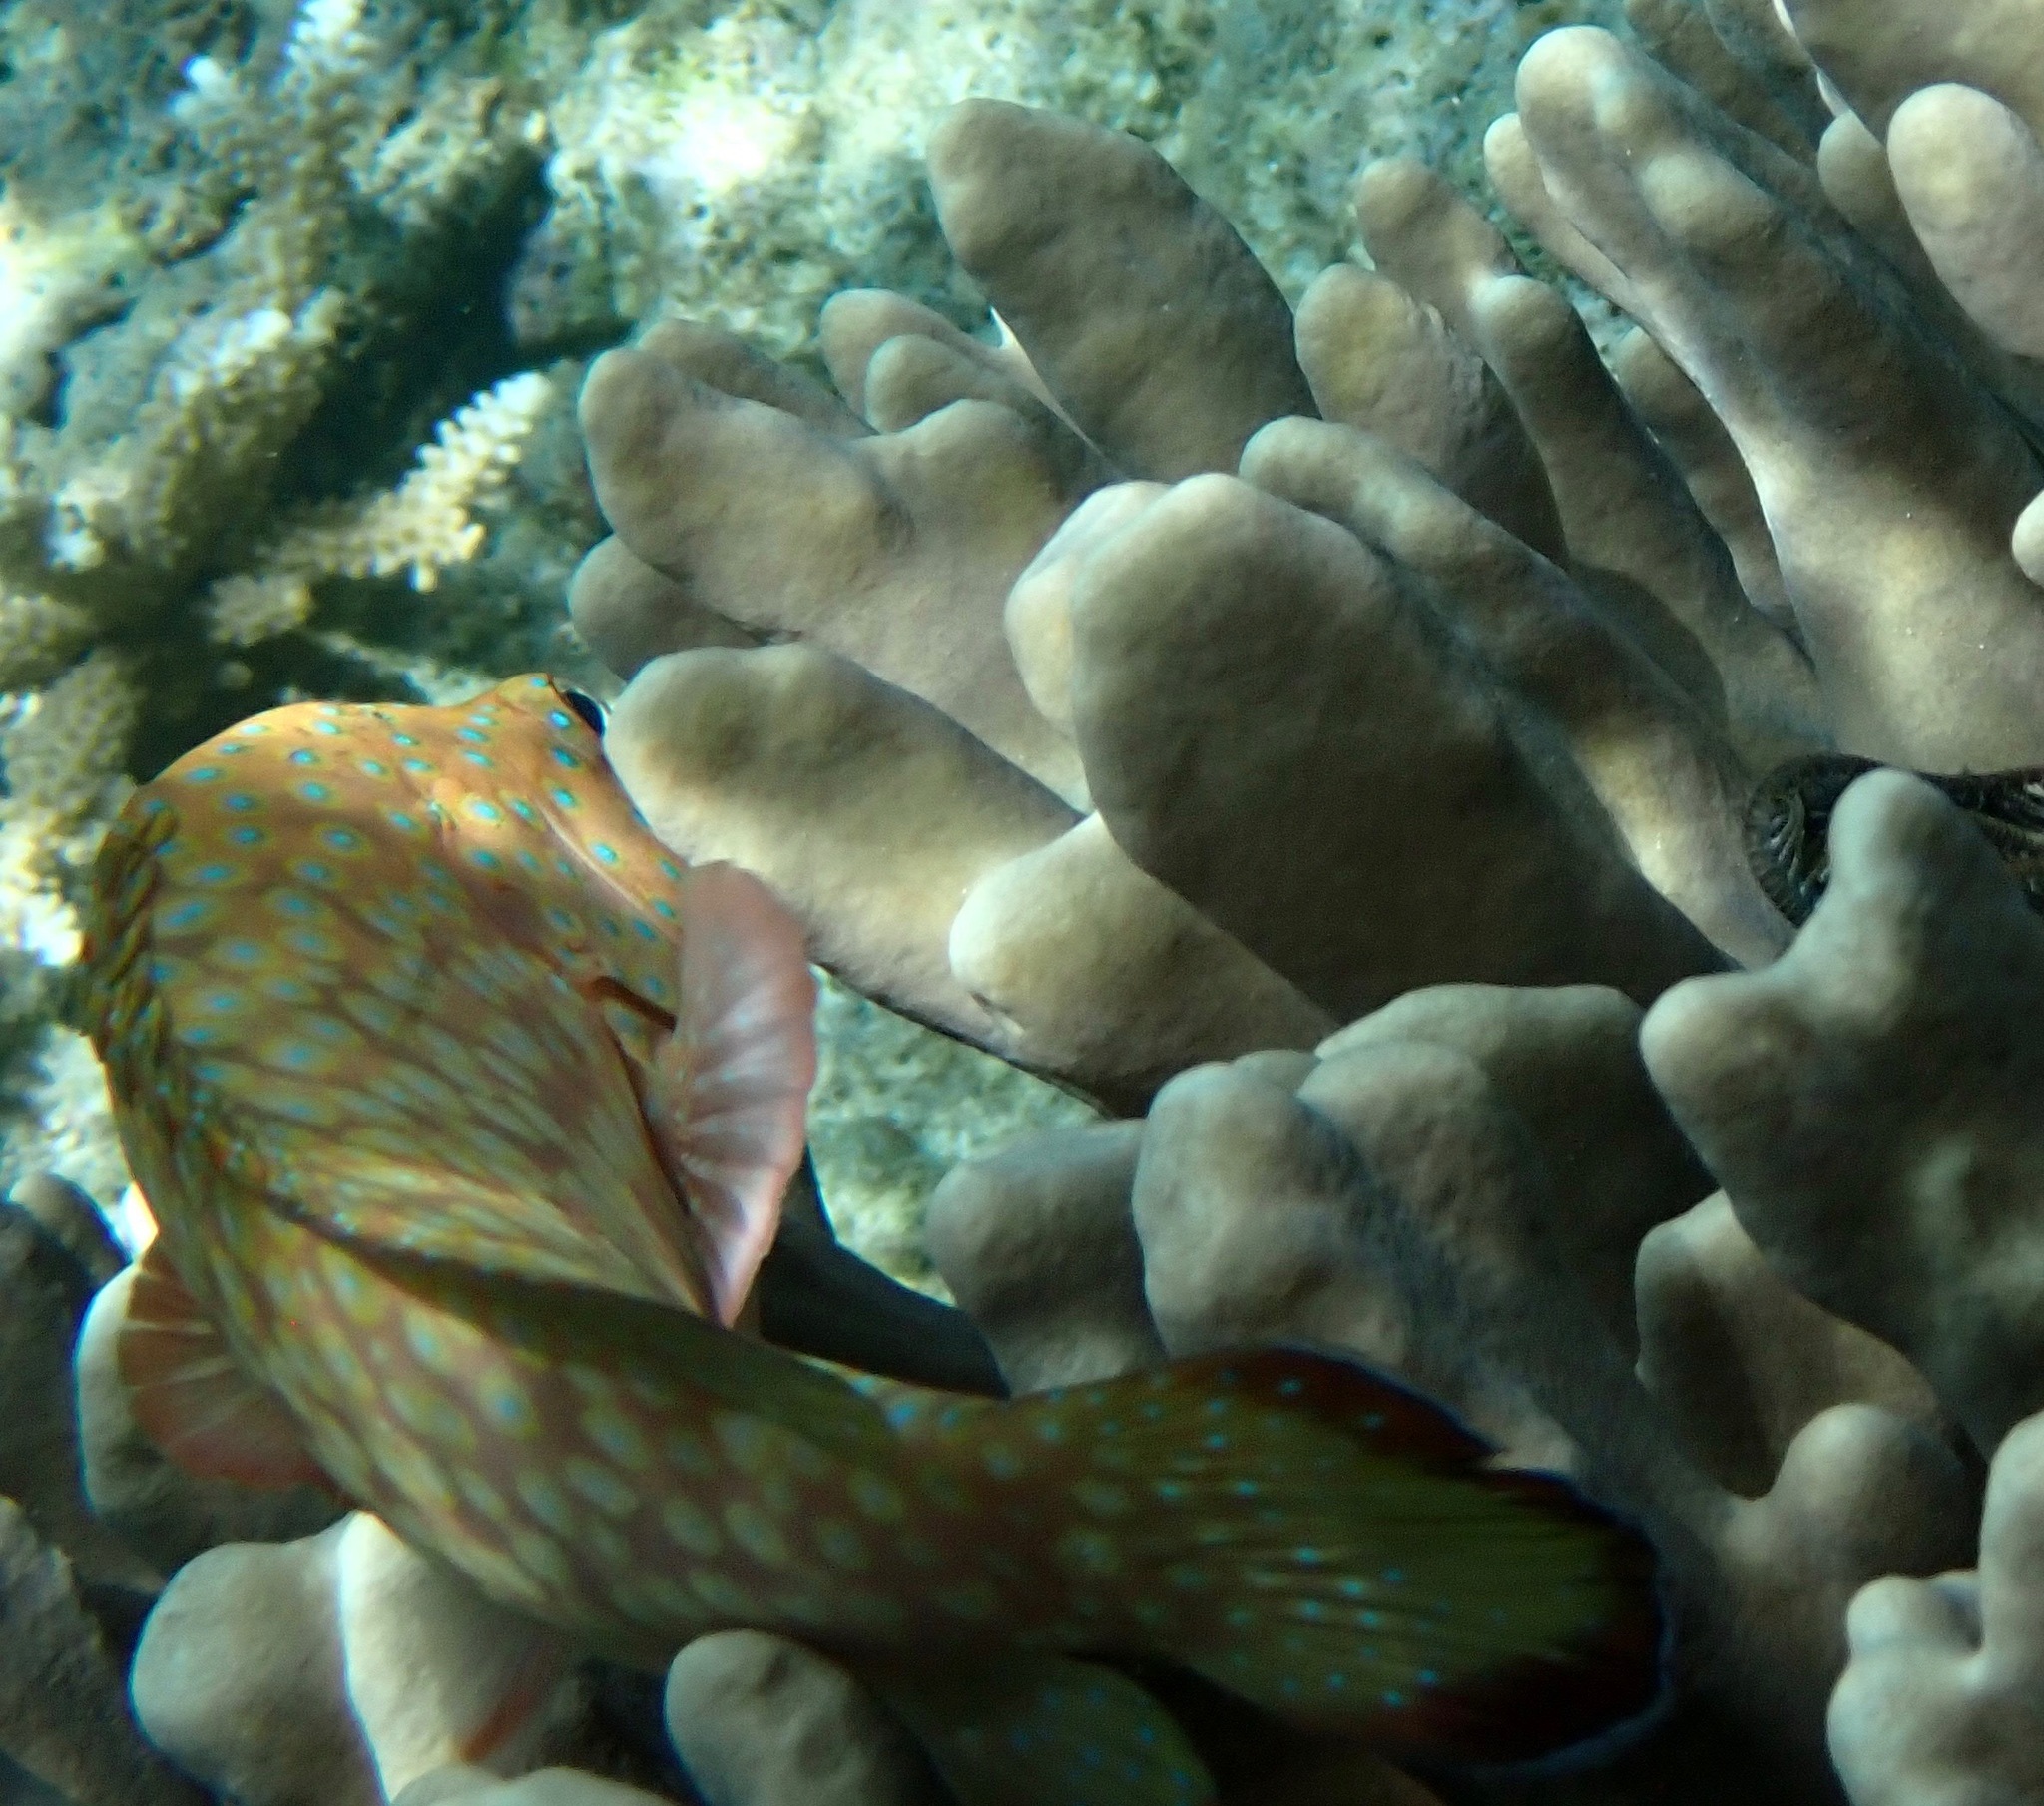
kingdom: Animalia
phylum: Chordata
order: Perciformes
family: Serranidae
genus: Cephalopholis
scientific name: Cephalopholis cyanostigma
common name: Bluespotted hind
